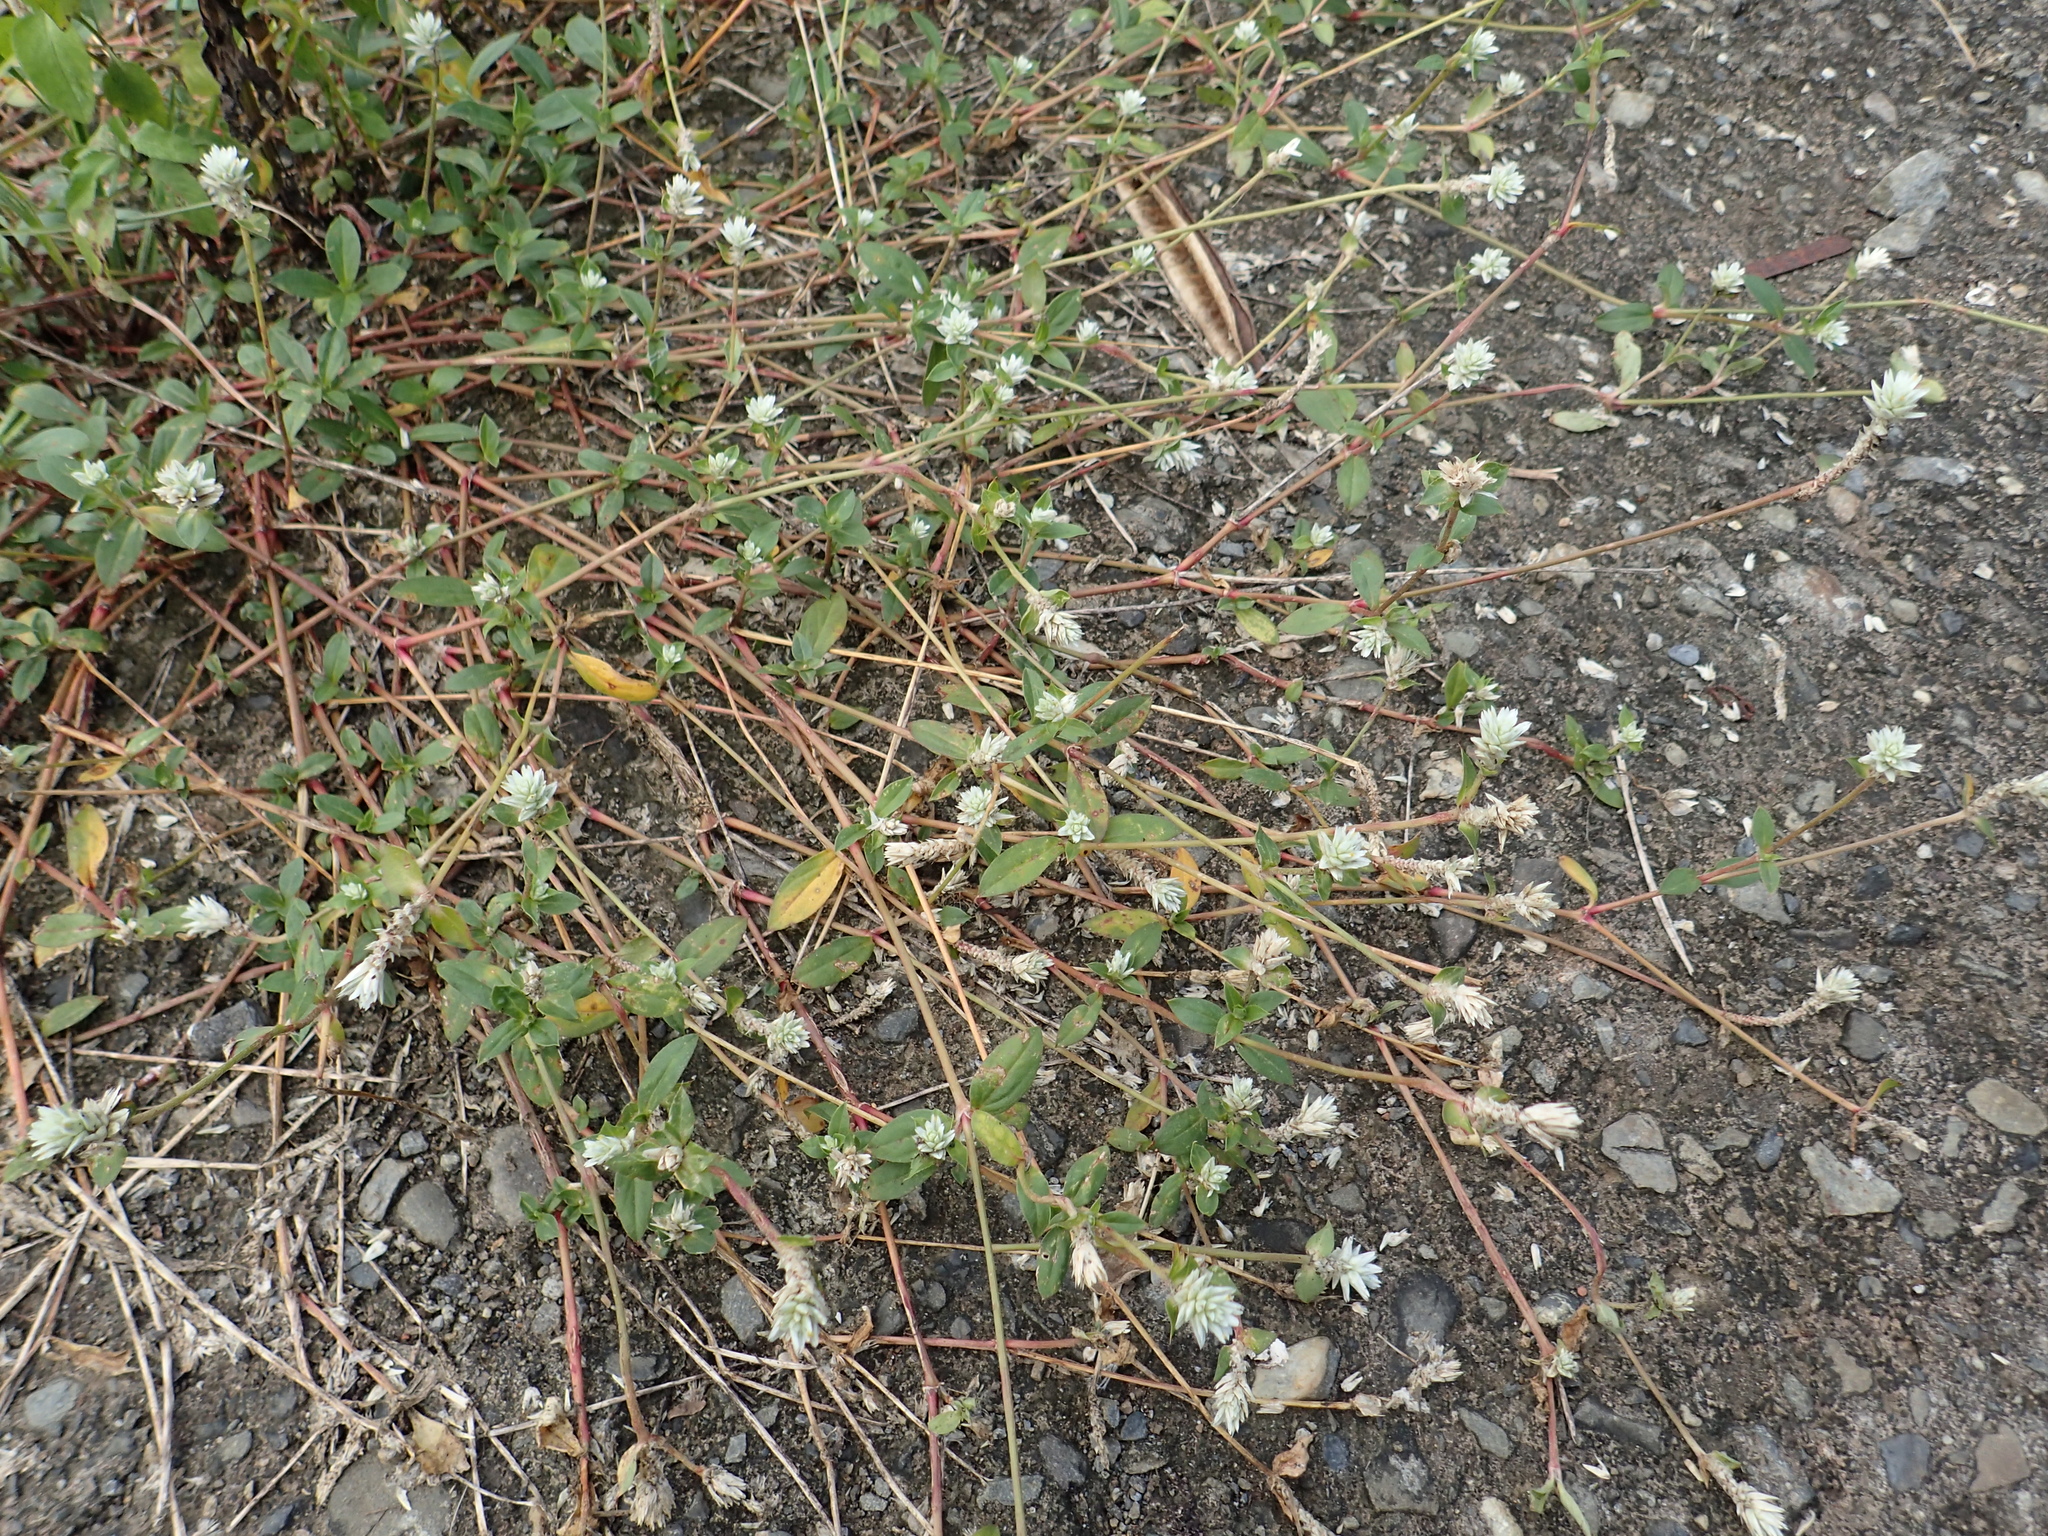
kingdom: Plantae
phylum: Tracheophyta
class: Magnoliopsida
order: Caryophyllales
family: Amaranthaceae
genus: Gomphrena
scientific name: Gomphrena serrata
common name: Arrasa con todo
